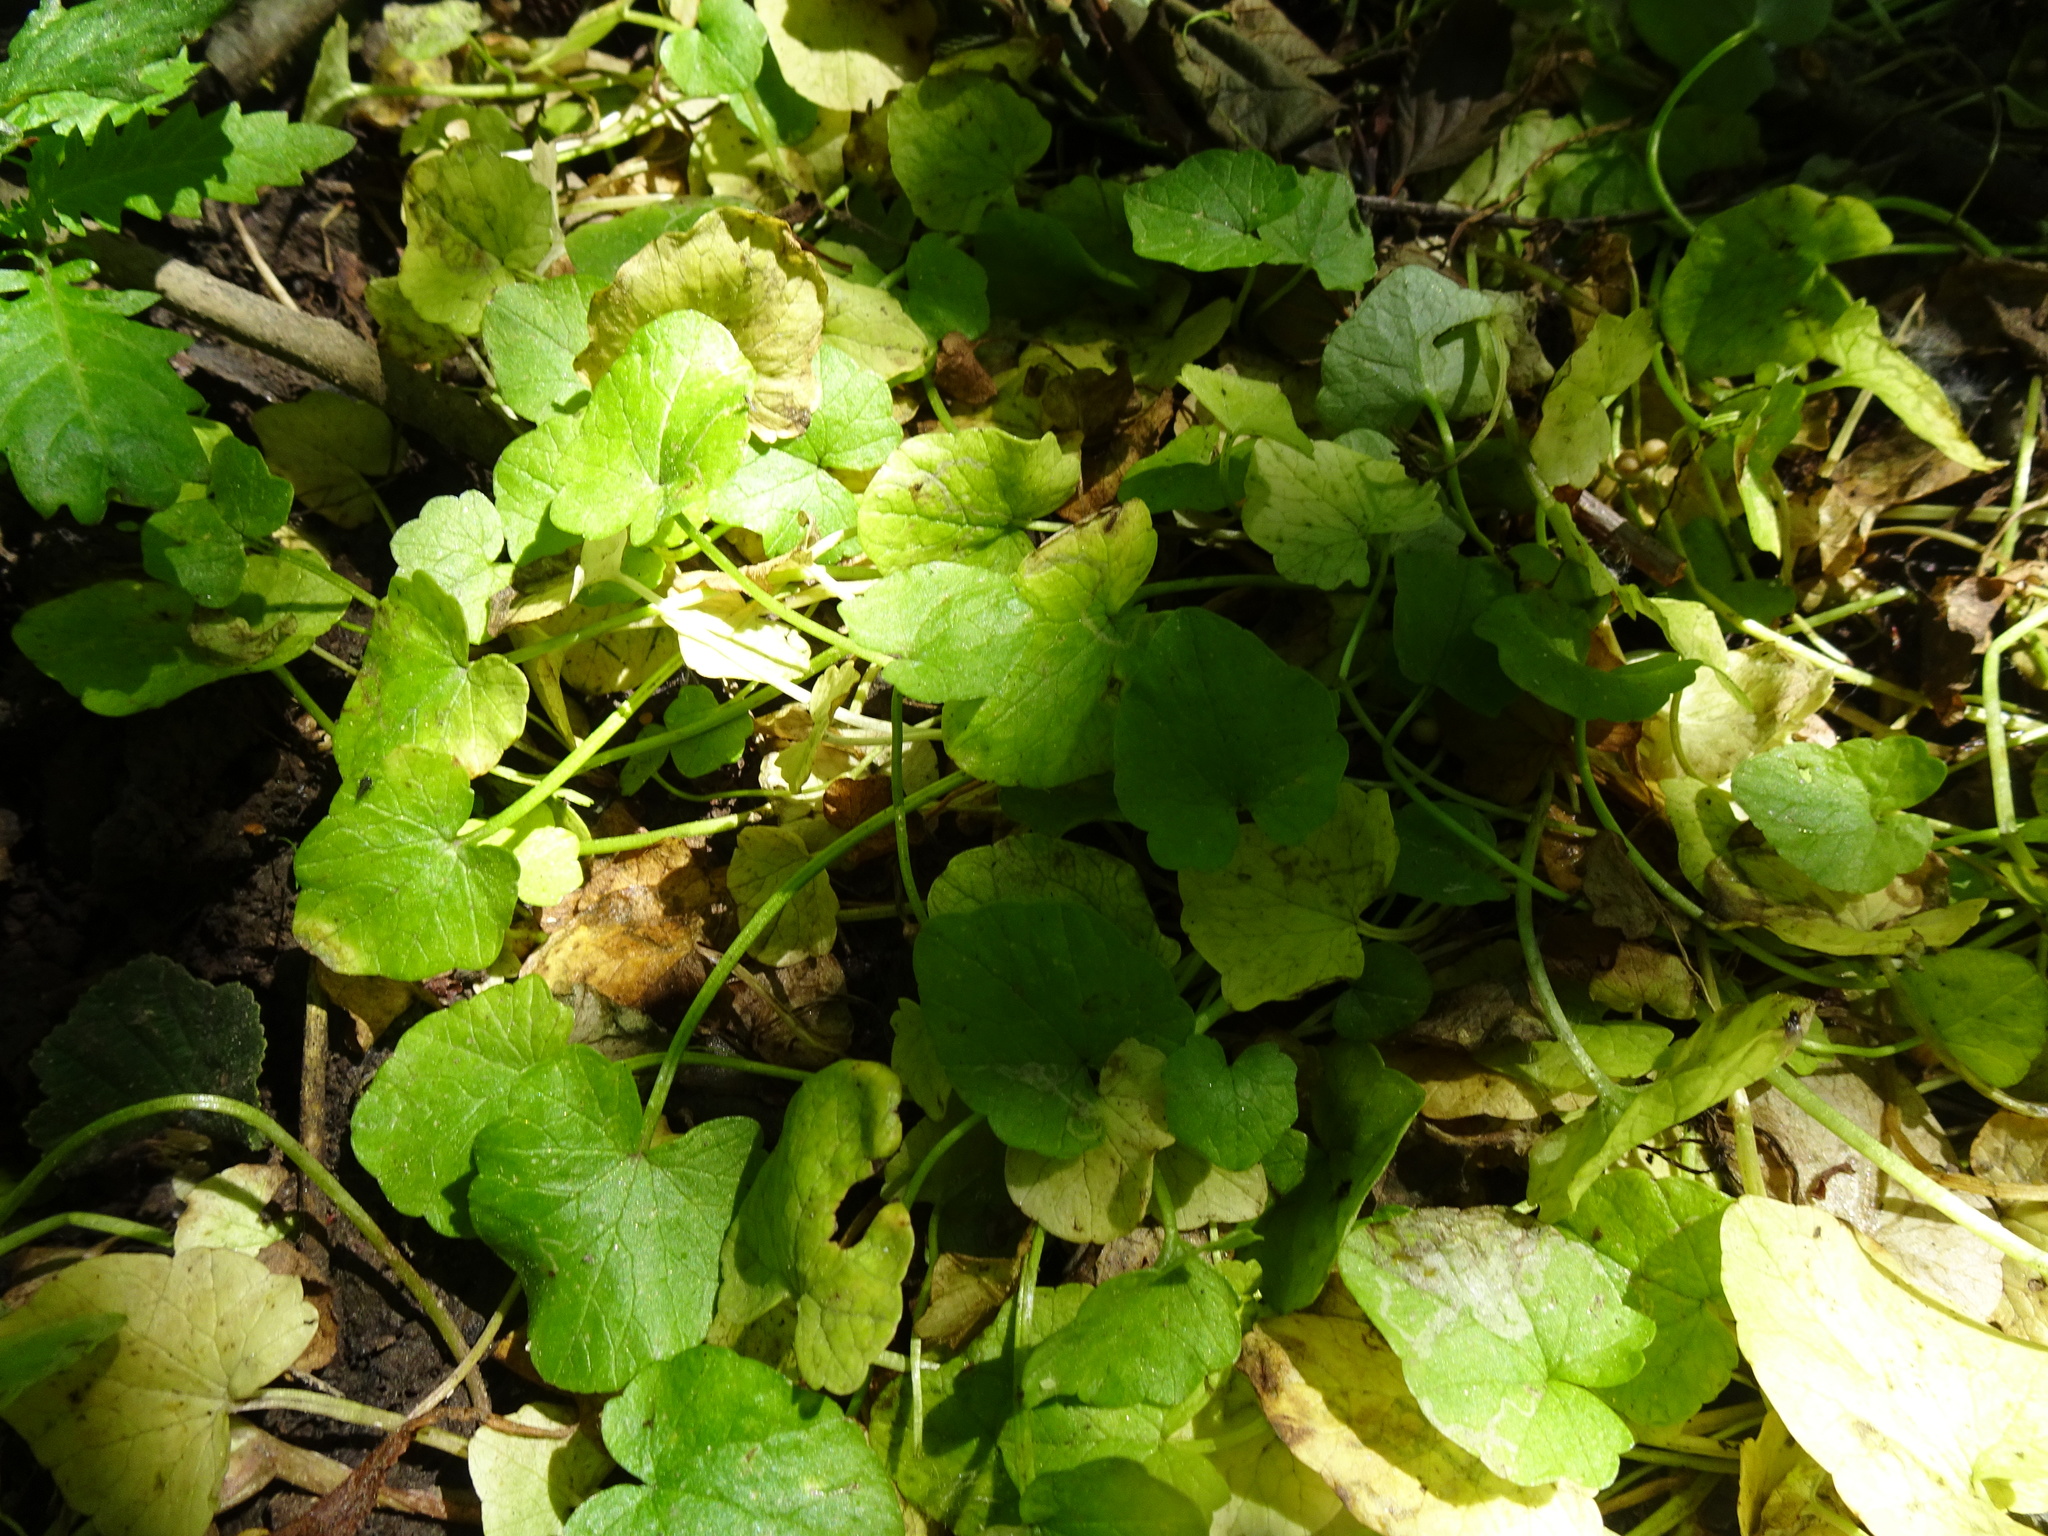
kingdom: Plantae
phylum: Tracheophyta
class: Magnoliopsida
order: Ranunculales
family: Ranunculaceae
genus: Ficaria
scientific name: Ficaria verna
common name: Lesser celandine
